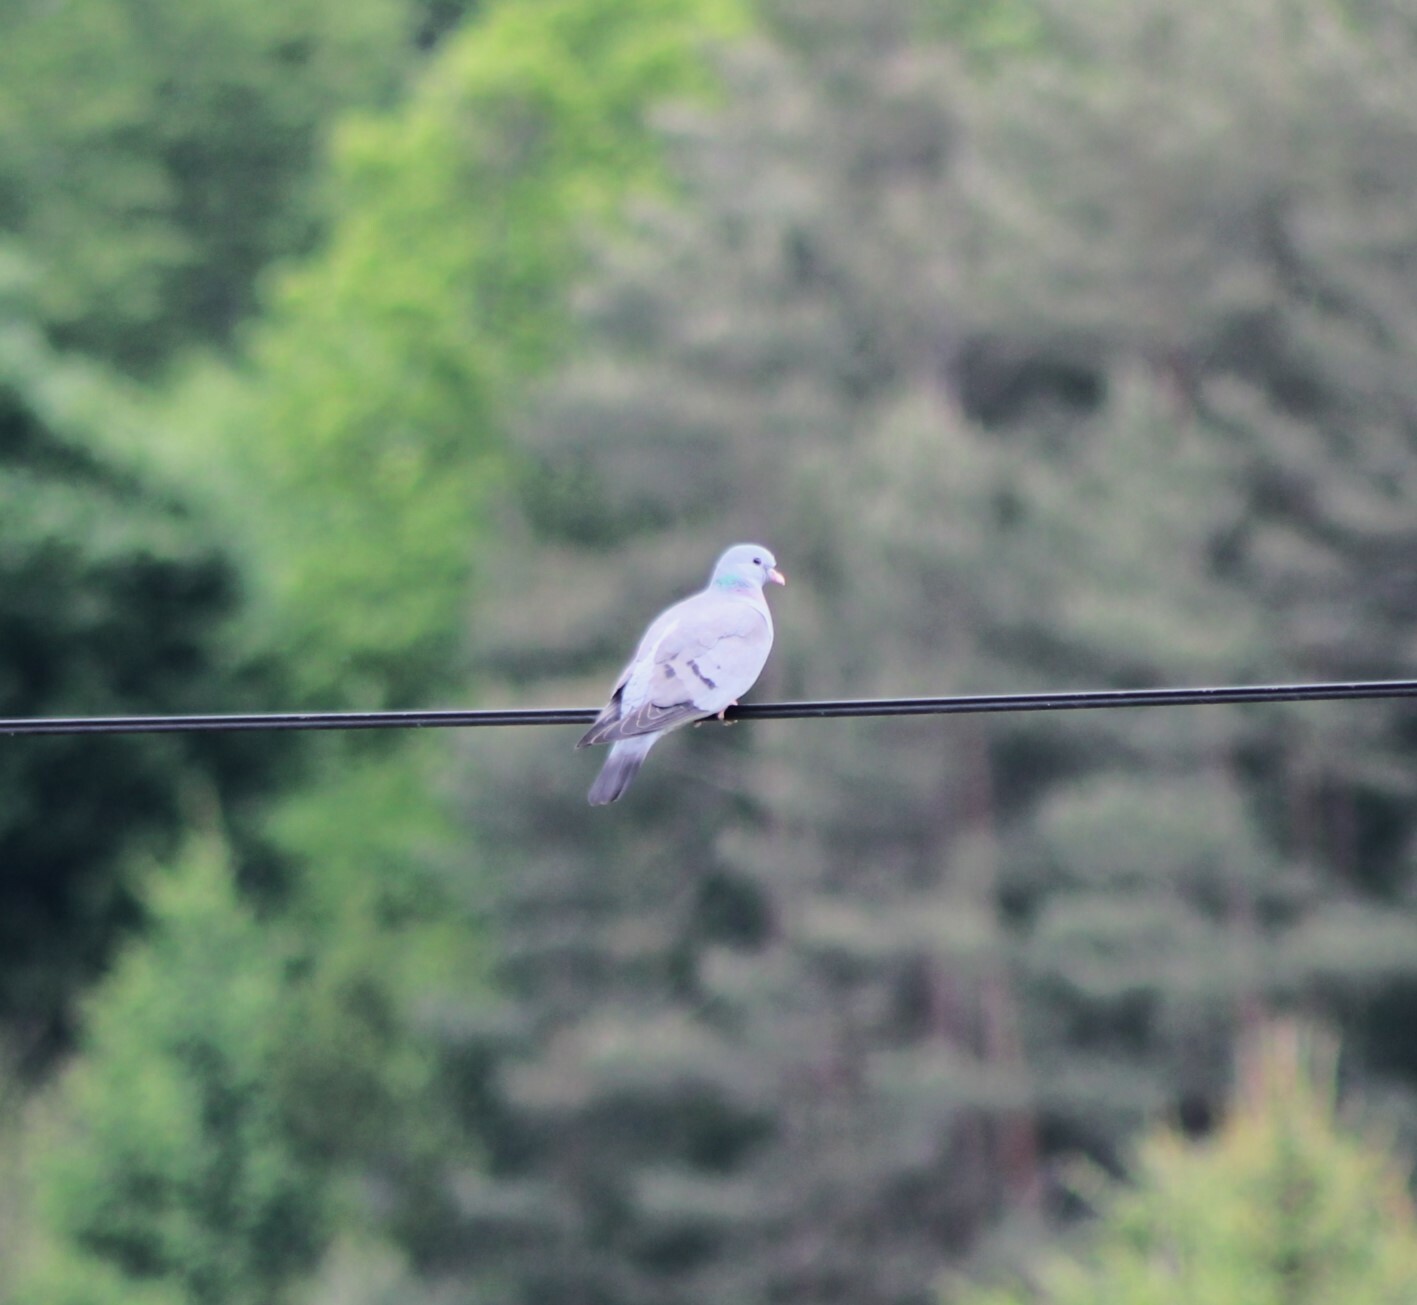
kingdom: Animalia
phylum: Chordata
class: Aves
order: Columbiformes
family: Columbidae
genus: Columba
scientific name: Columba oenas
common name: Stock dove
